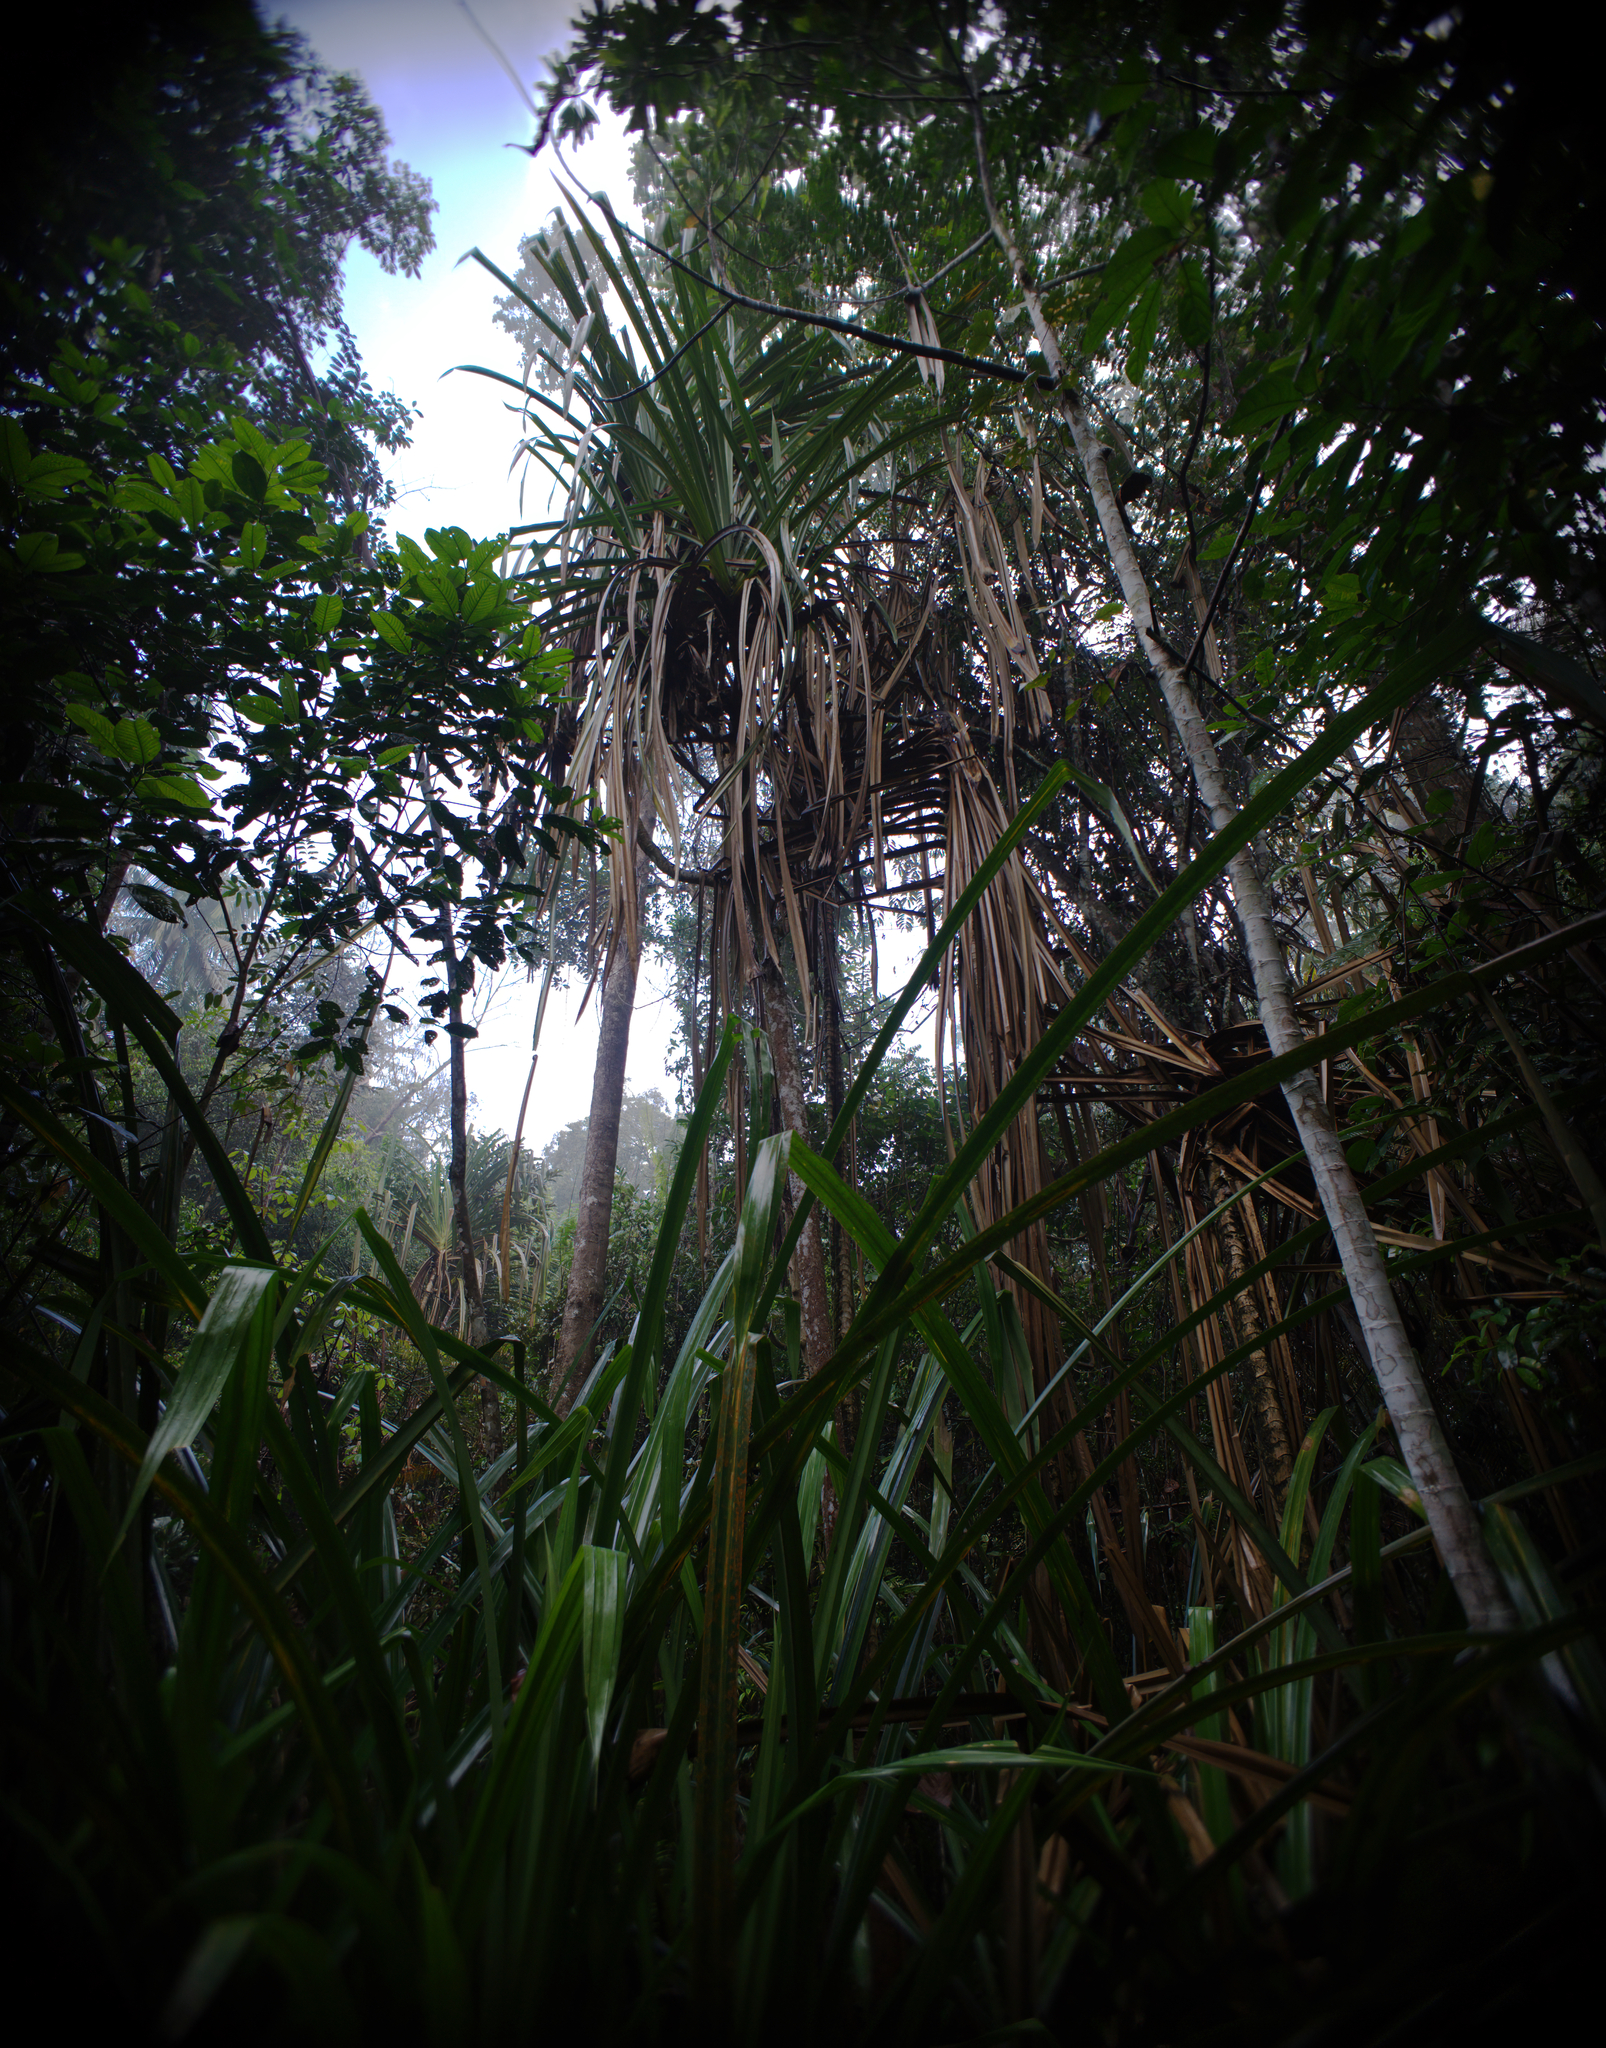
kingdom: Plantae
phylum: Tracheophyta
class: Liliopsida
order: Pandanales
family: Pandanaceae
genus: Benstonea
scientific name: Benstonea atrocarpa
